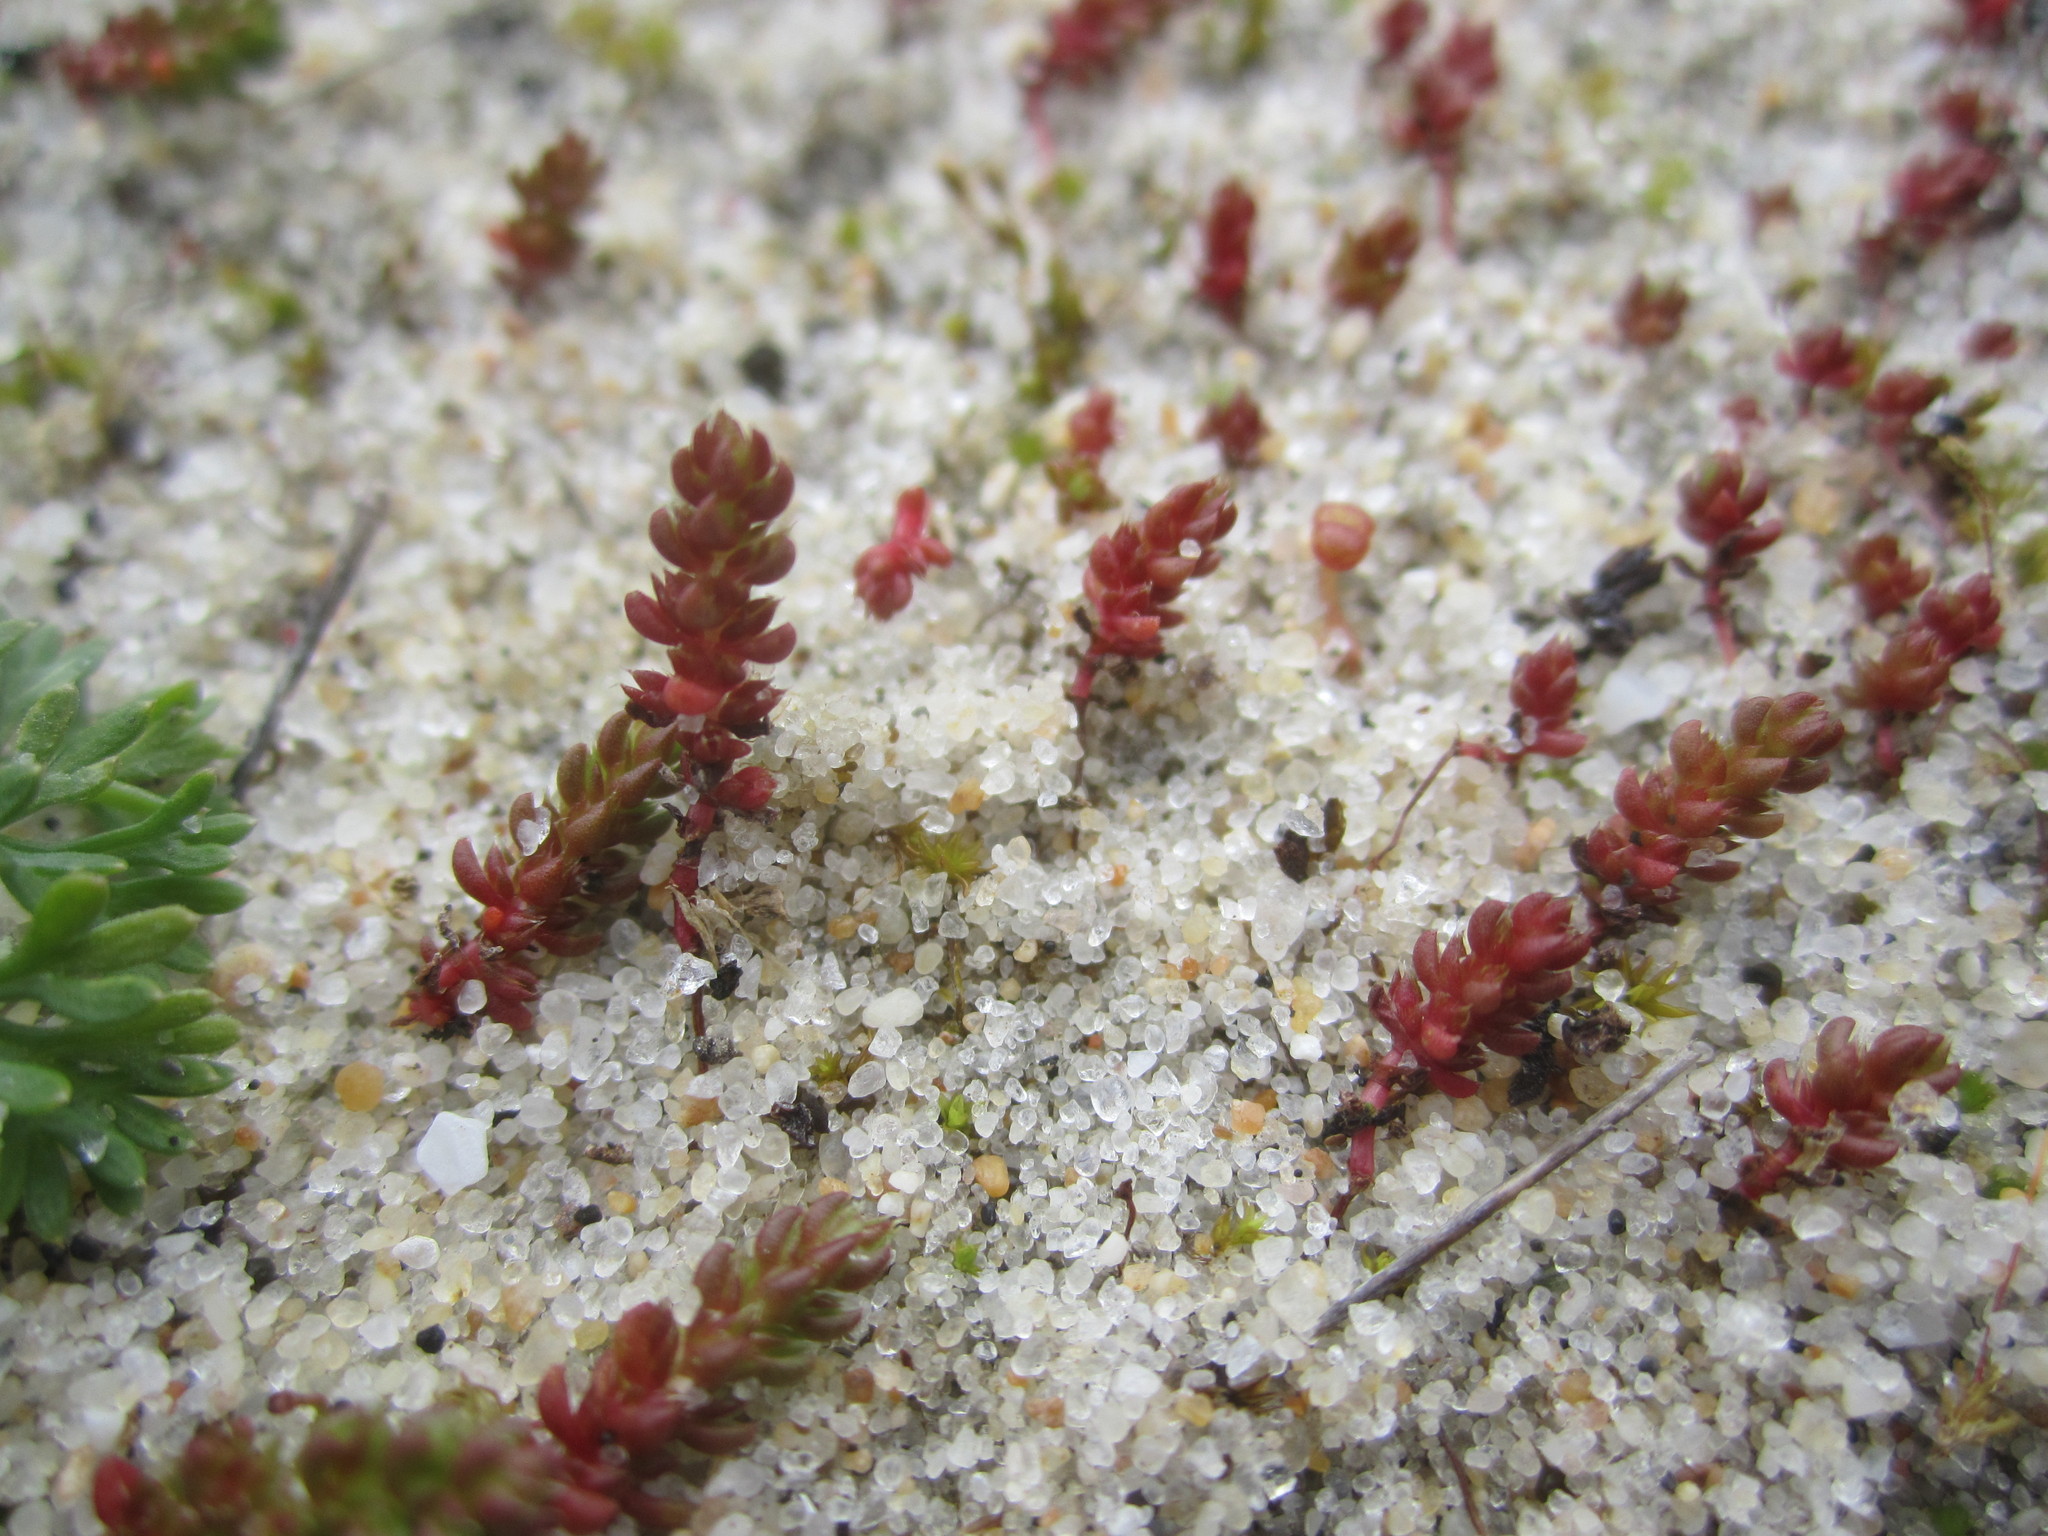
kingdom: Plantae
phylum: Tracheophyta
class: Magnoliopsida
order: Saxifragales
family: Crassulaceae
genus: Crassula
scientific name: Crassula tillaea
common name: Mossy stonecrop
